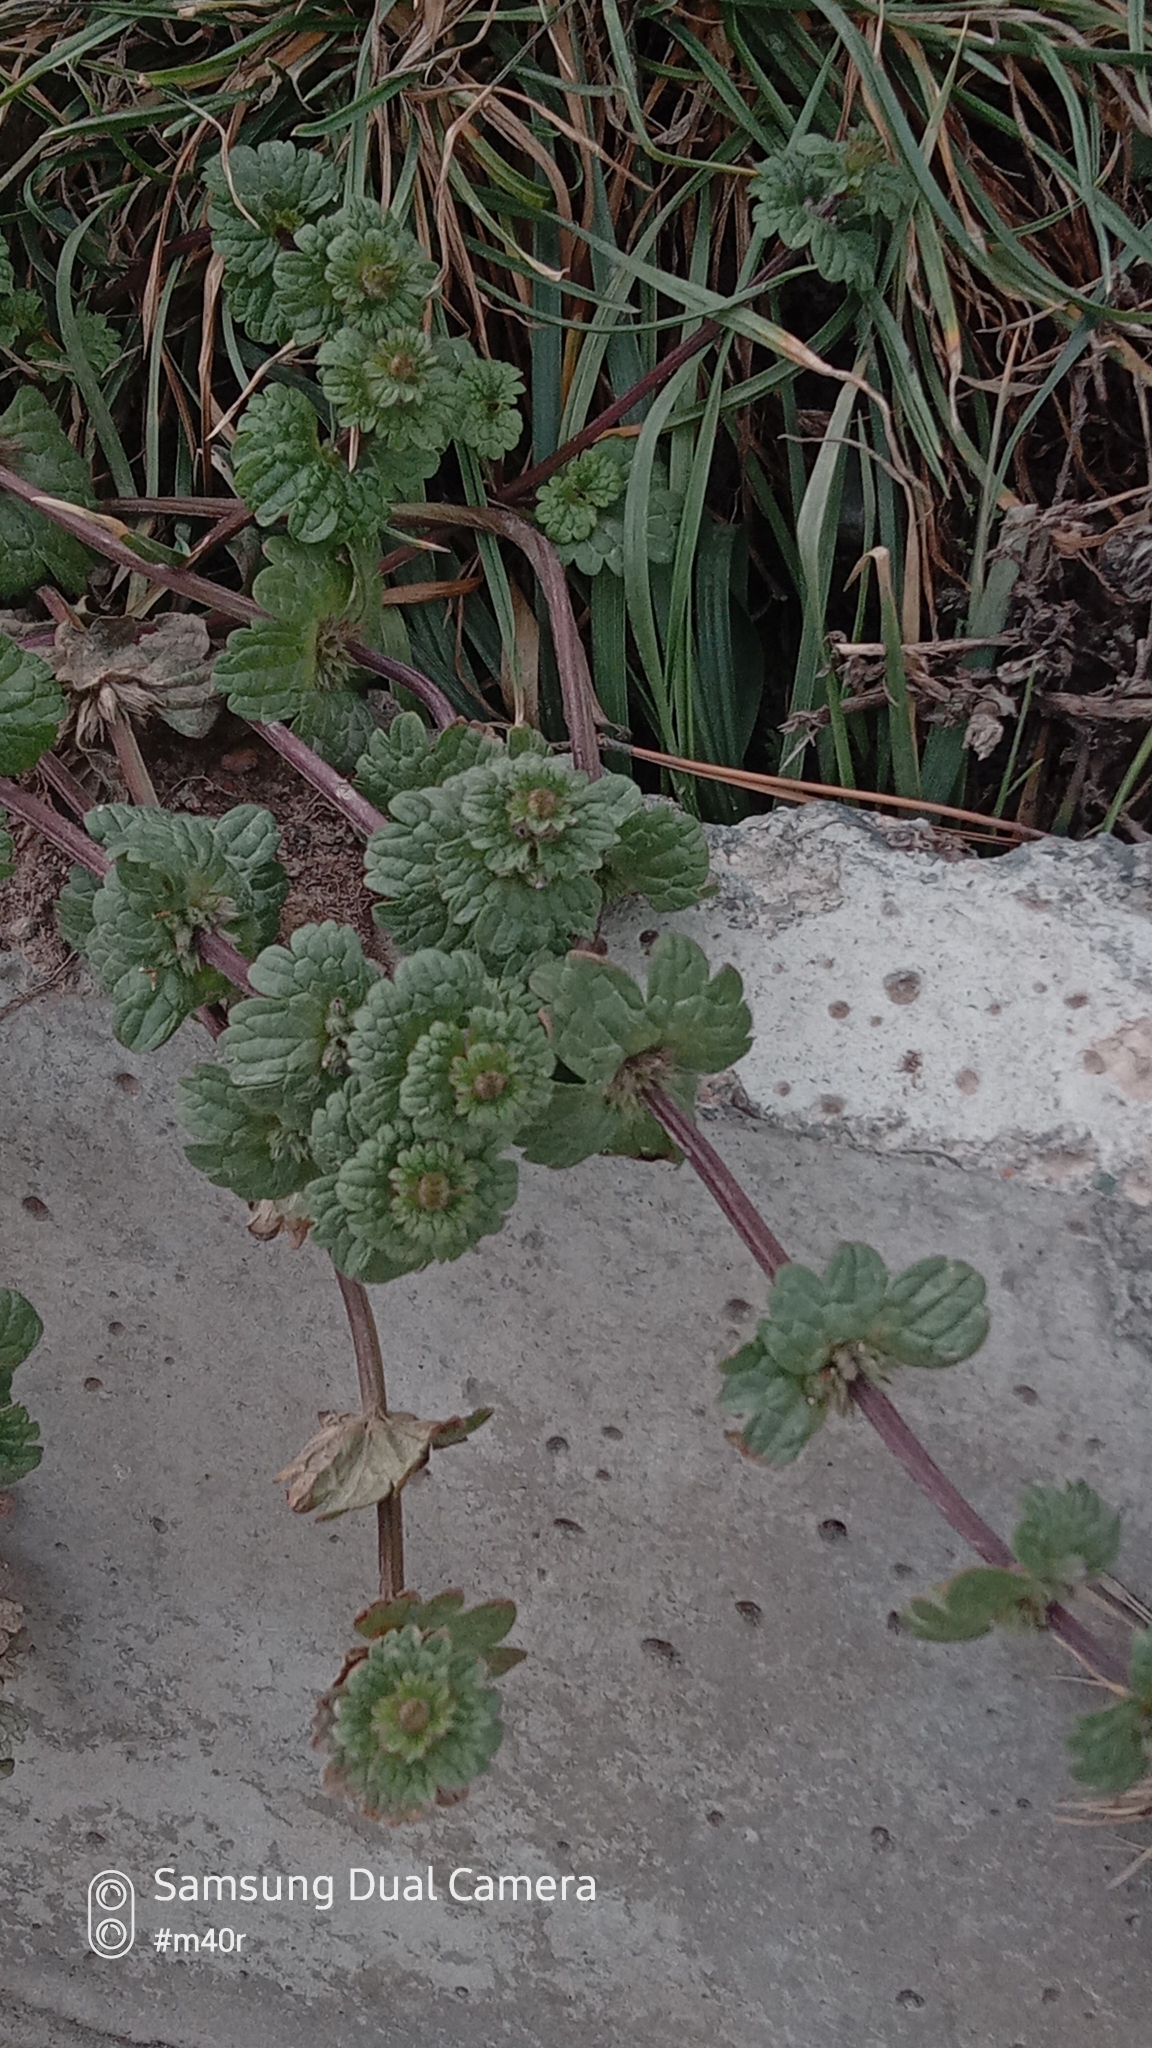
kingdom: Plantae
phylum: Tracheophyta
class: Magnoliopsida
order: Lamiales
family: Lamiaceae
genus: Lamium
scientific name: Lamium amplexicaule
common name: Henbit dead-nettle
